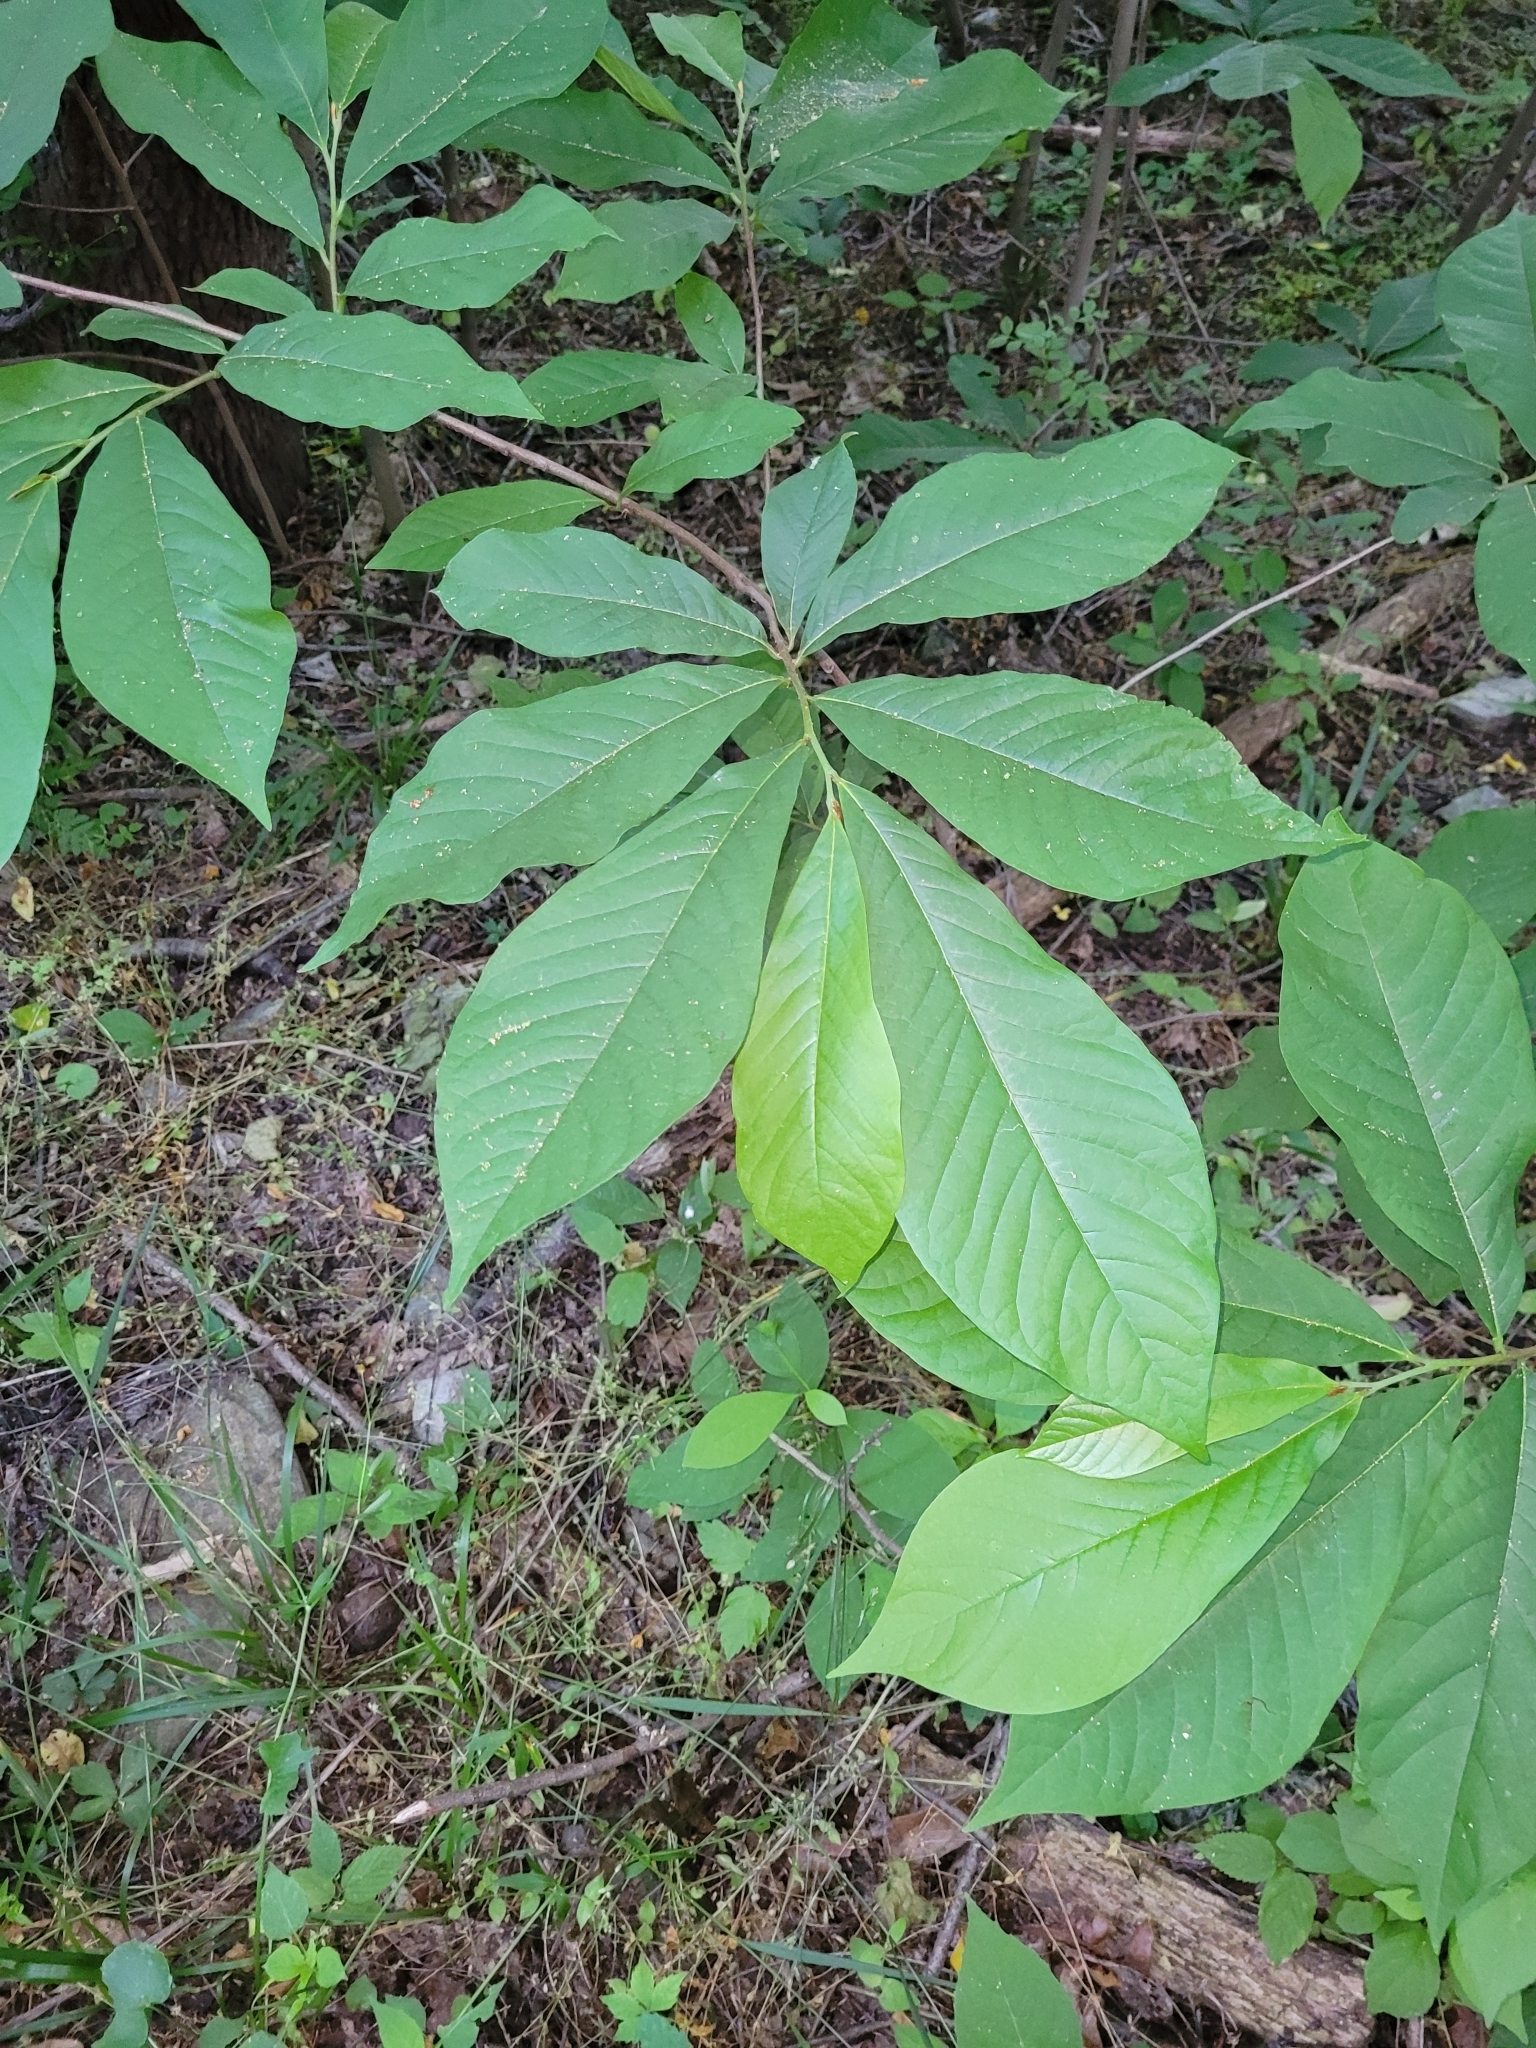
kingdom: Plantae
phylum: Tracheophyta
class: Magnoliopsida
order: Magnoliales
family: Annonaceae
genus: Asimina
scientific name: Asimina triloba
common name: Dog-banana
